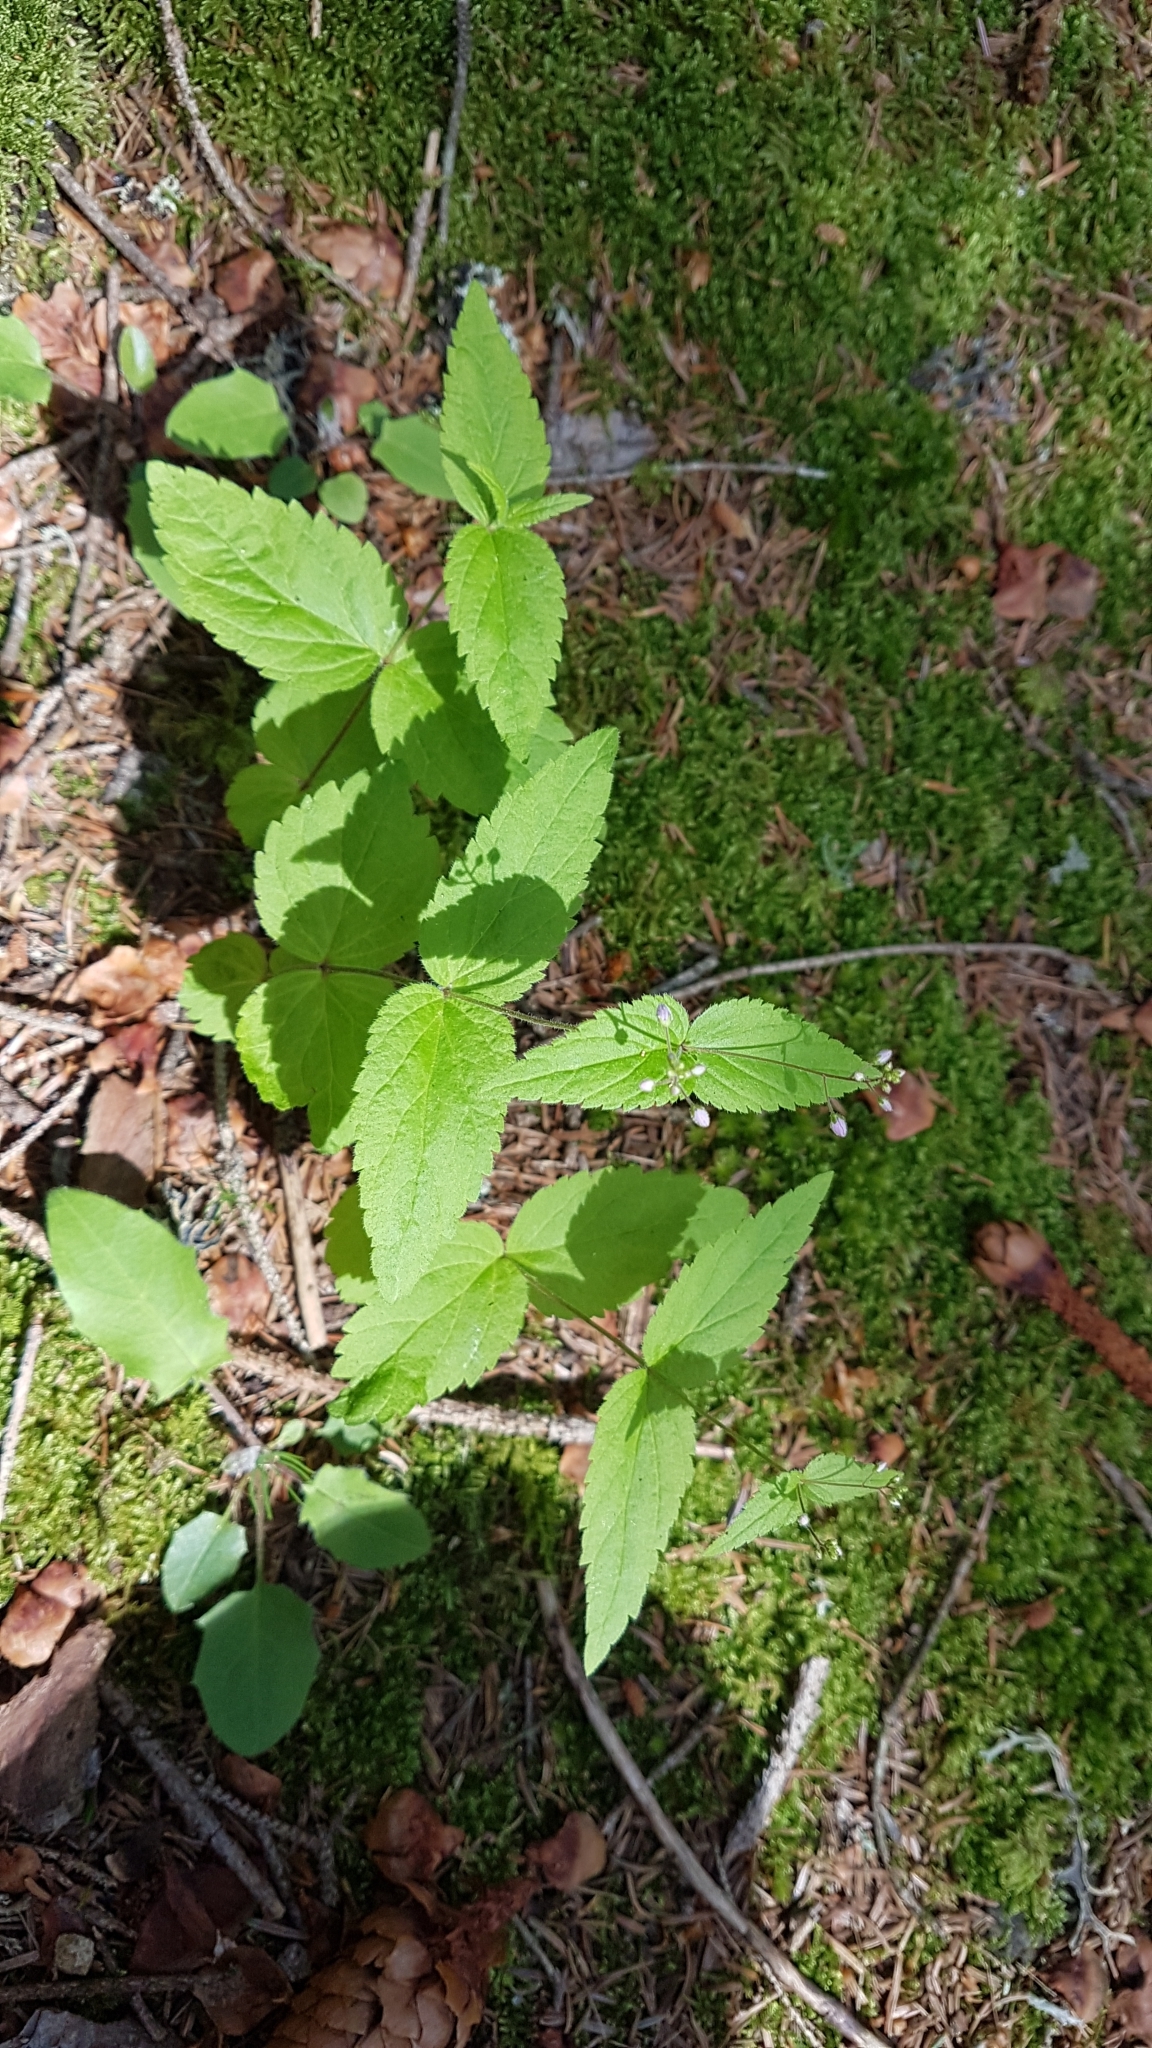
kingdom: Plantae
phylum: Tracheophyta
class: Magnoliopsida
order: Lamiales
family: Plantaginaceae
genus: Veronica
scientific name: Veronica urticifolia
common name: Nettle-leaf speedwell
